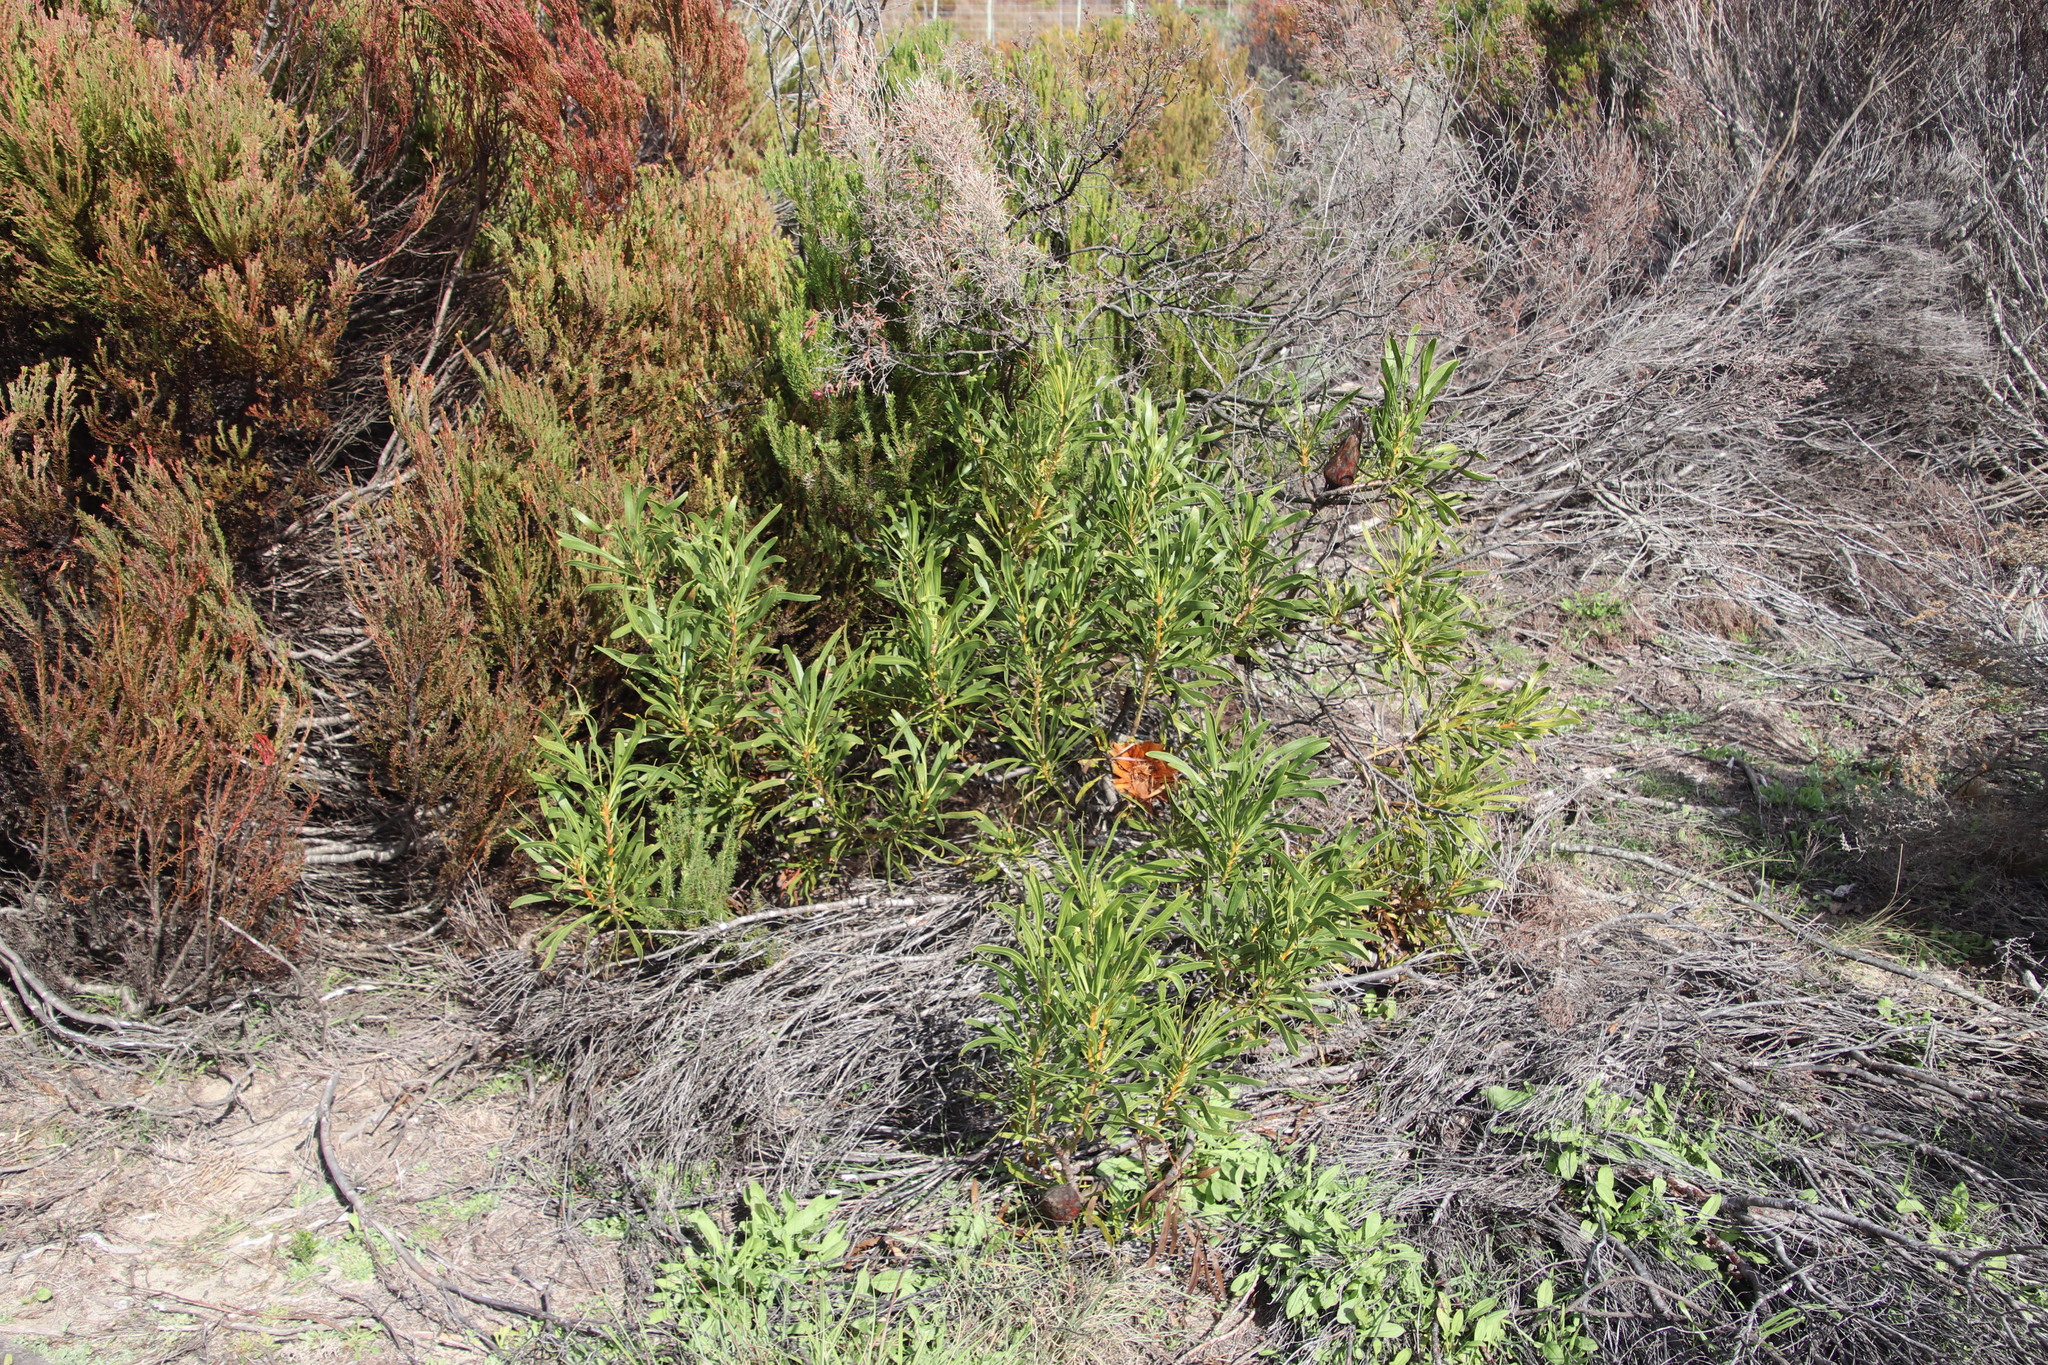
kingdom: Plantae
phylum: Tracheophyta
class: Magnoliopsida
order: Proteales
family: Proteaceae
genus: Protea
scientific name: Protea repens
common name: Sugarbush
